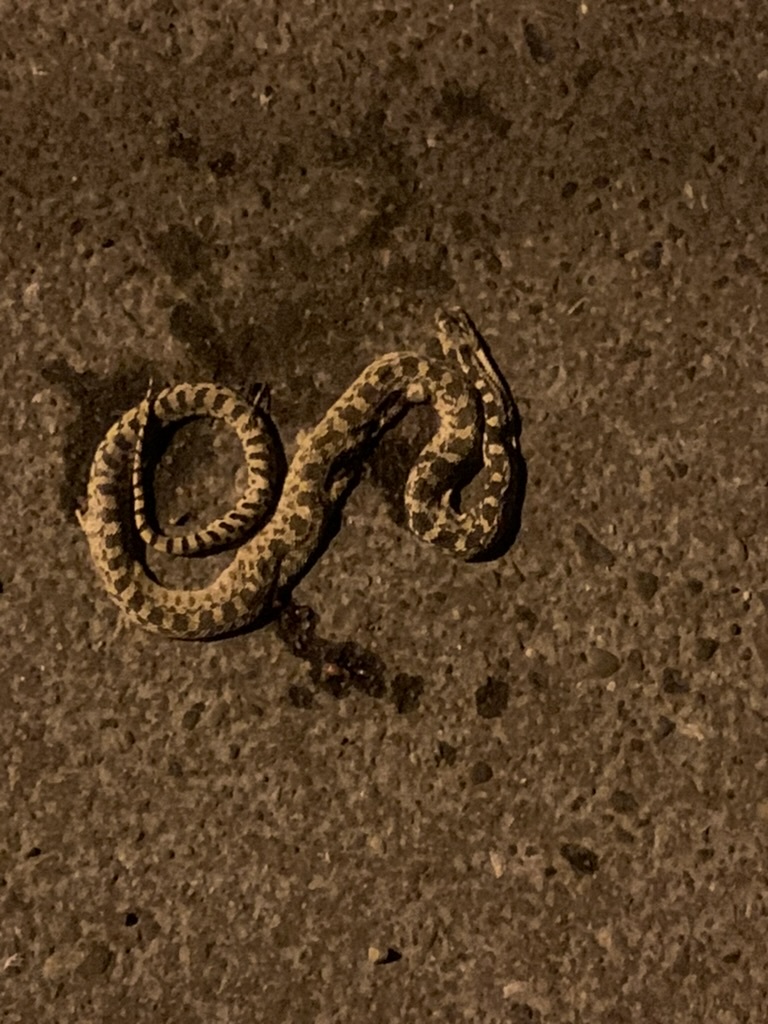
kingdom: Animalia
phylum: Chordata
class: Squamata
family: Colubridae
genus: Pituophis
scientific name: Pituophis catenifer
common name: Gopher snake
